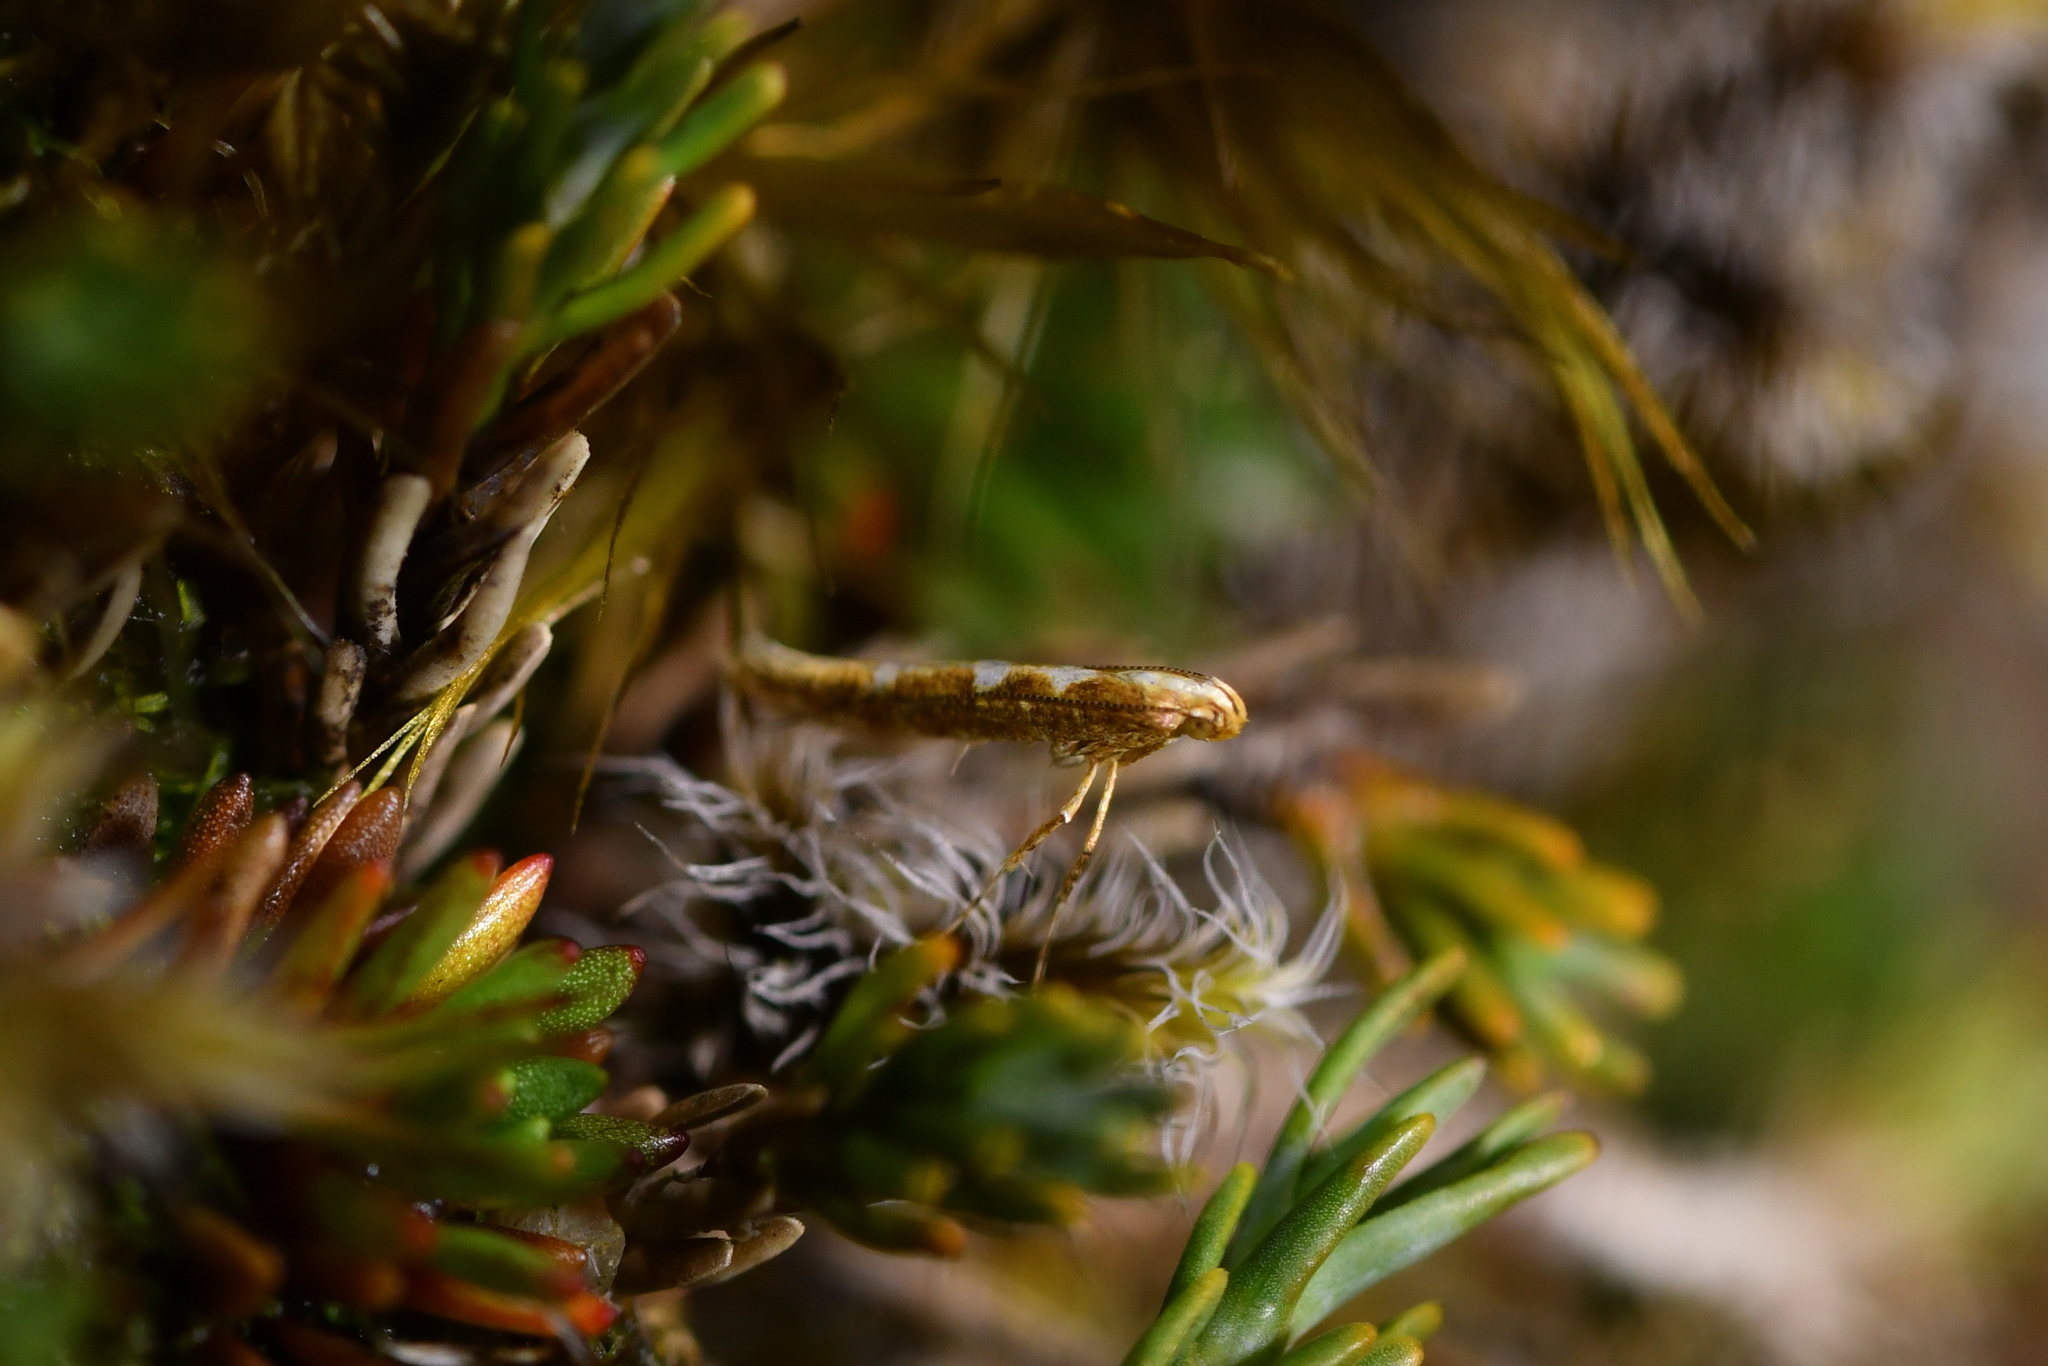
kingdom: Animalia
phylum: Arthropoda
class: Insecta
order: Lepidoptera
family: Gracillariidae
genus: Caloptilia
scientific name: Caloptilia selenitis
